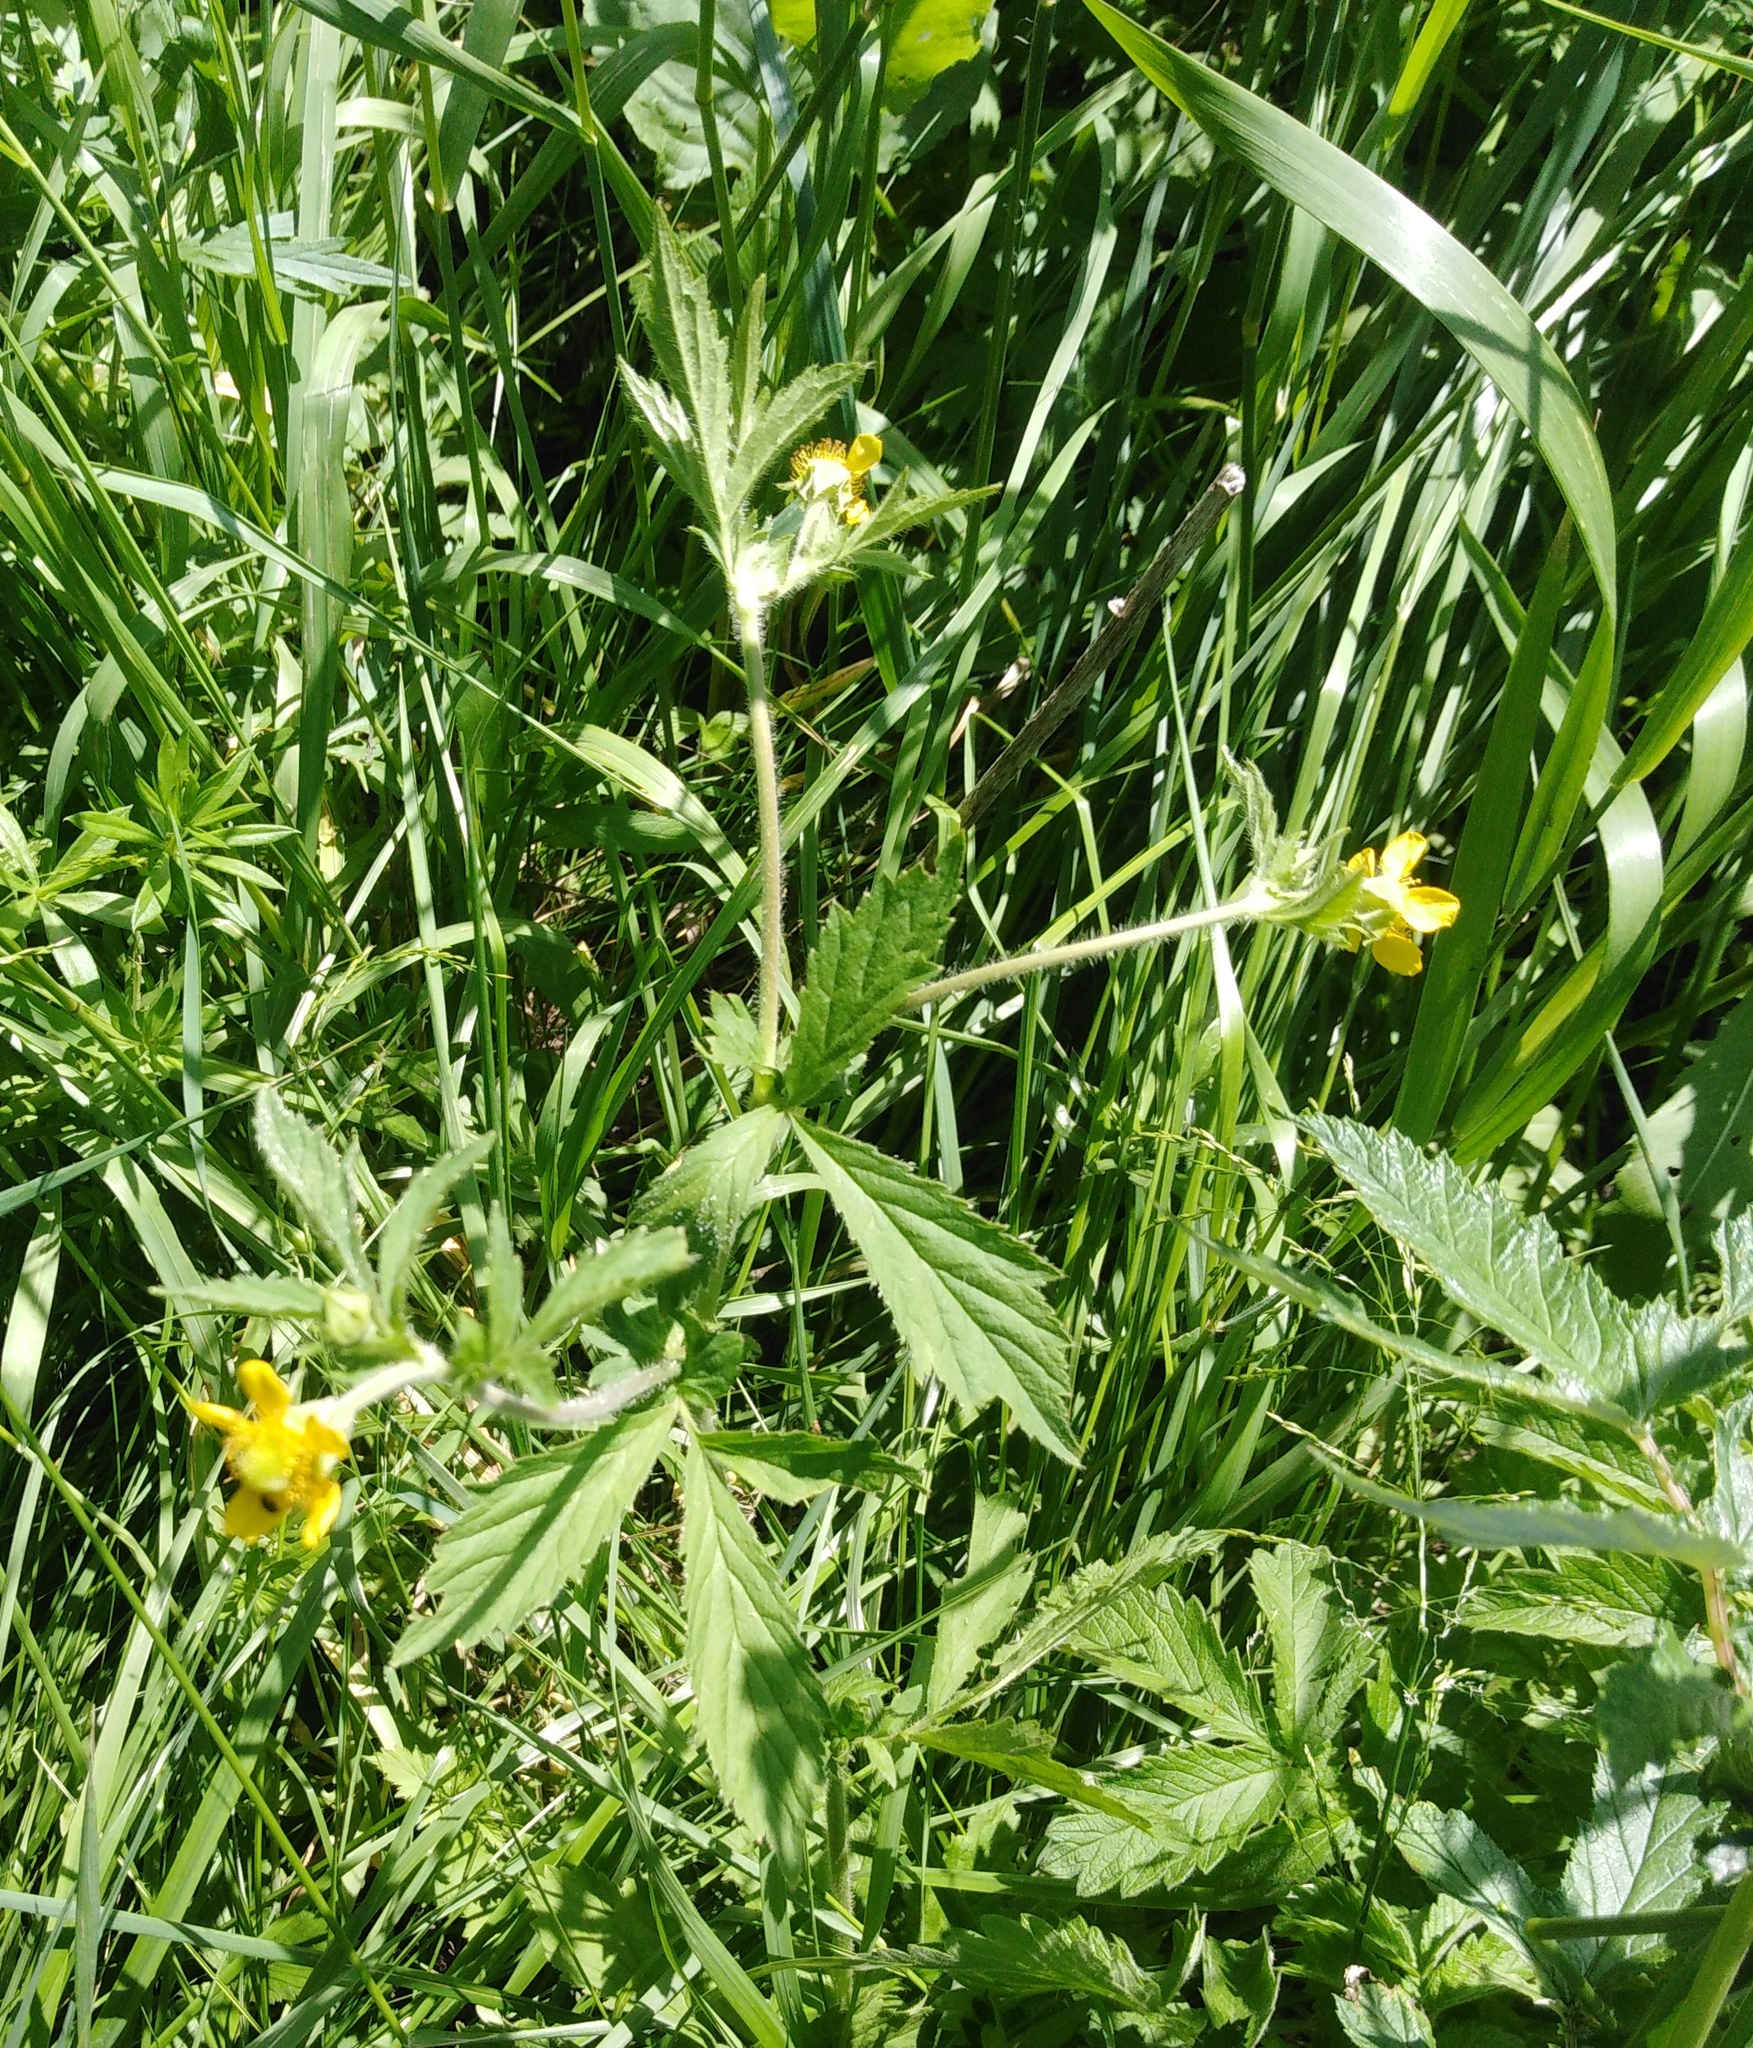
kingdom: Plantae
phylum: Tracheophyta
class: Magnoliopsida
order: Rosales
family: Rosaceae
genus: Geum
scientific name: Geum aleppicum
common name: Yellow avens
